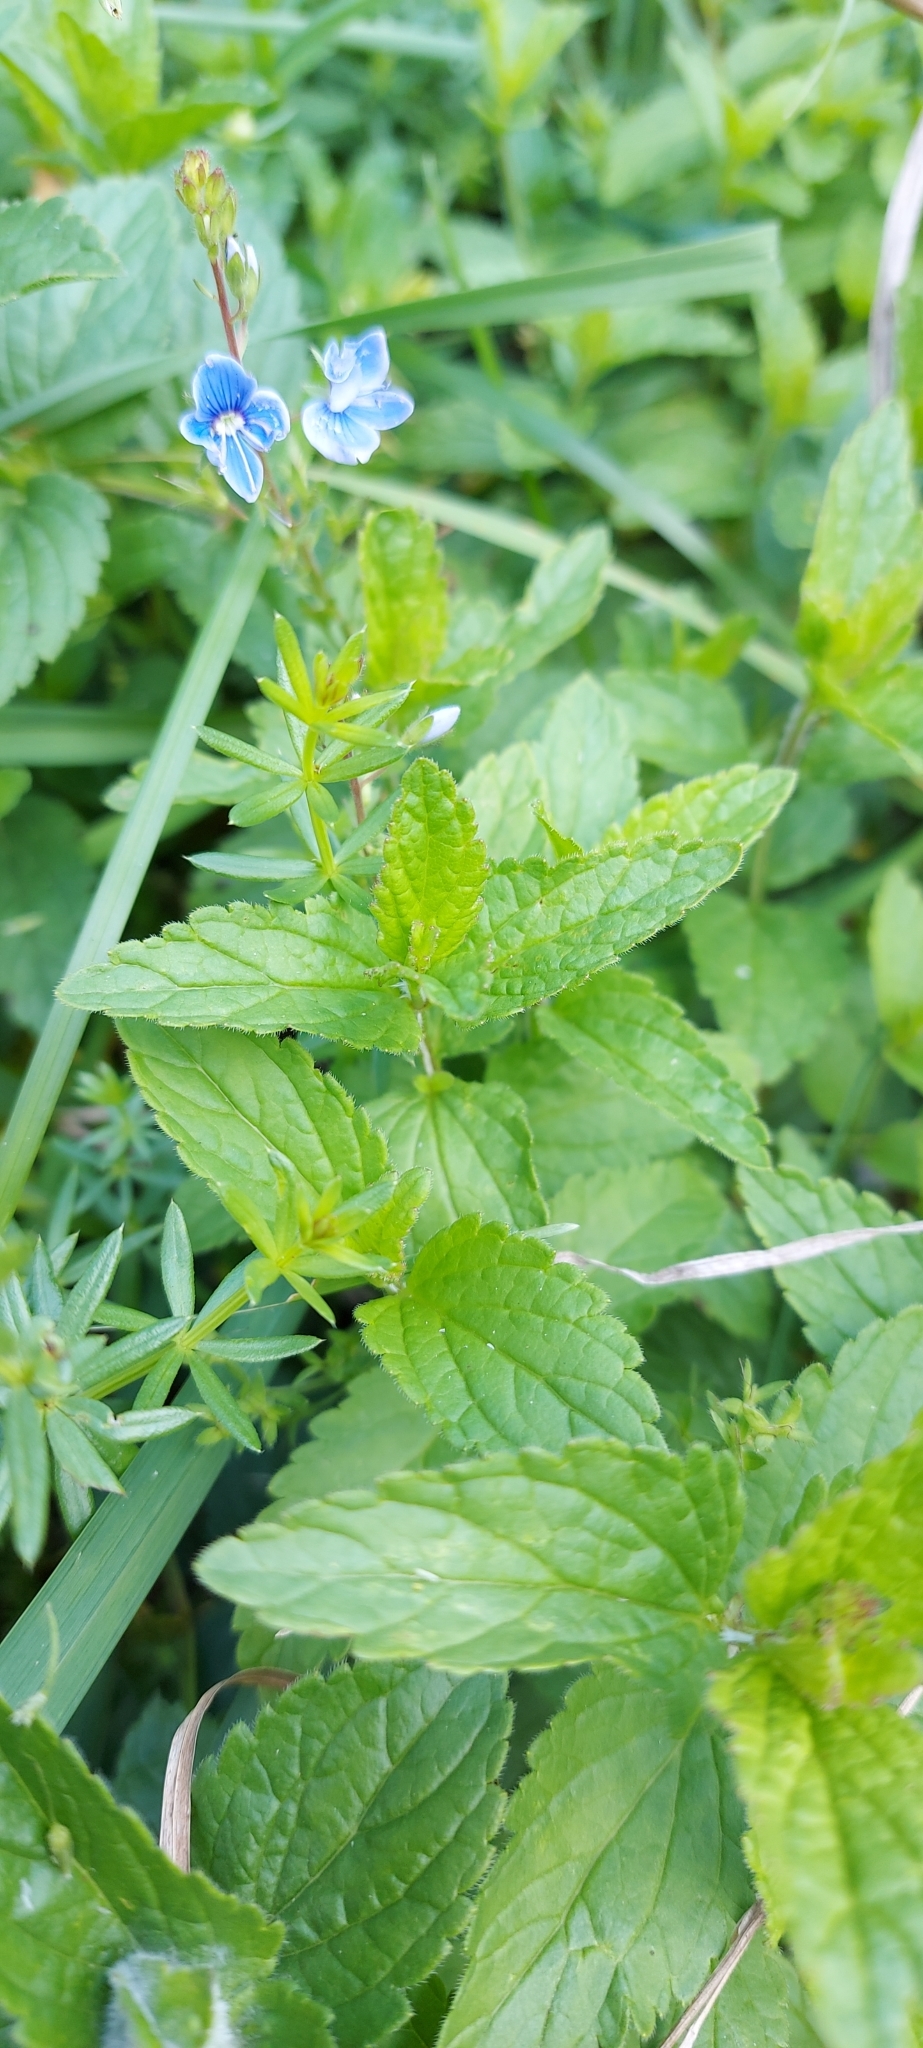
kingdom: Plantae
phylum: Tracheophyta
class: Magnoliopsida
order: Lamiales
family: Plantaginaceae
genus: Veronica
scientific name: Veronica chamaedrys
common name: Germander speedwell
